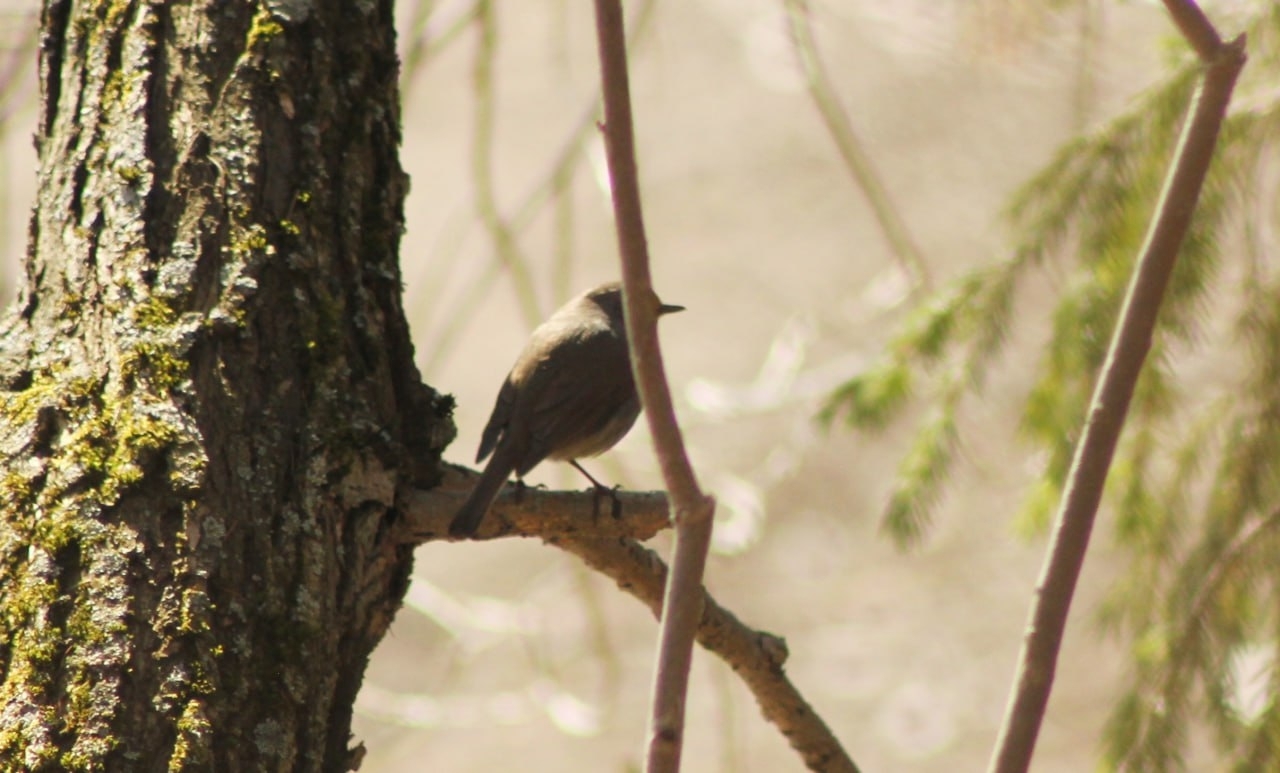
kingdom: Animalia
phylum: Chordata
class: Aves
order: Passeriformes
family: Muscicapidae
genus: Erithacus
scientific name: Erithacus rubecula
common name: European robin
